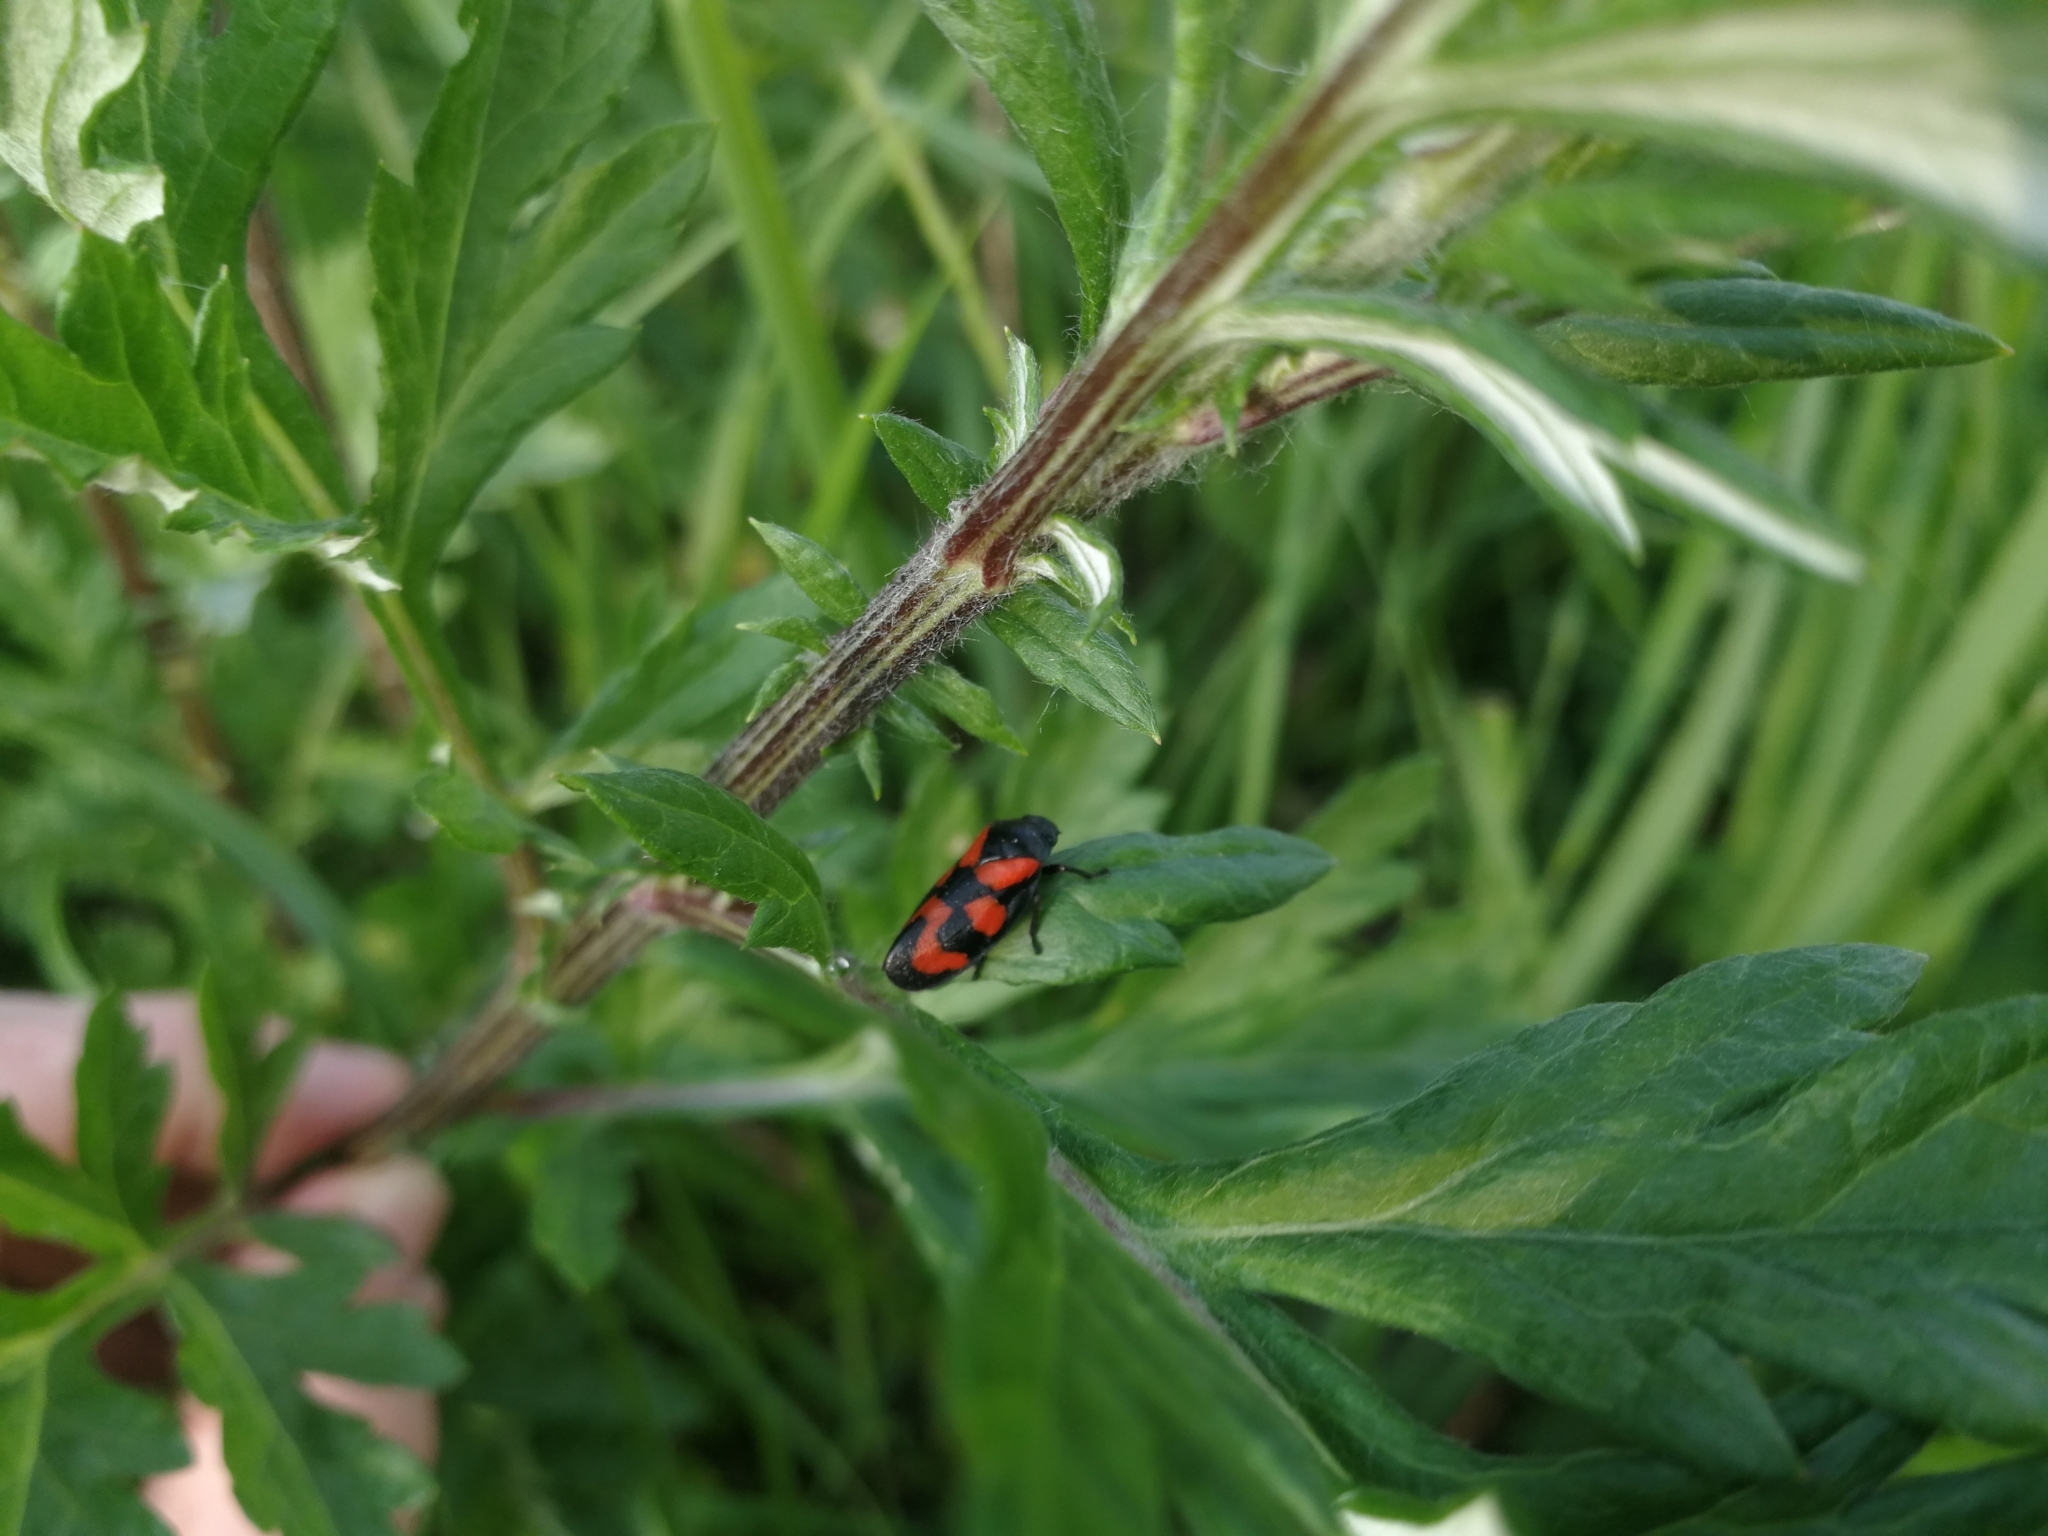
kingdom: Animalia
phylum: Arthropoda
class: Insecta
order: Hemiptera
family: Cercopidae
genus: Cercopis
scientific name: Cercopis vulnerata
